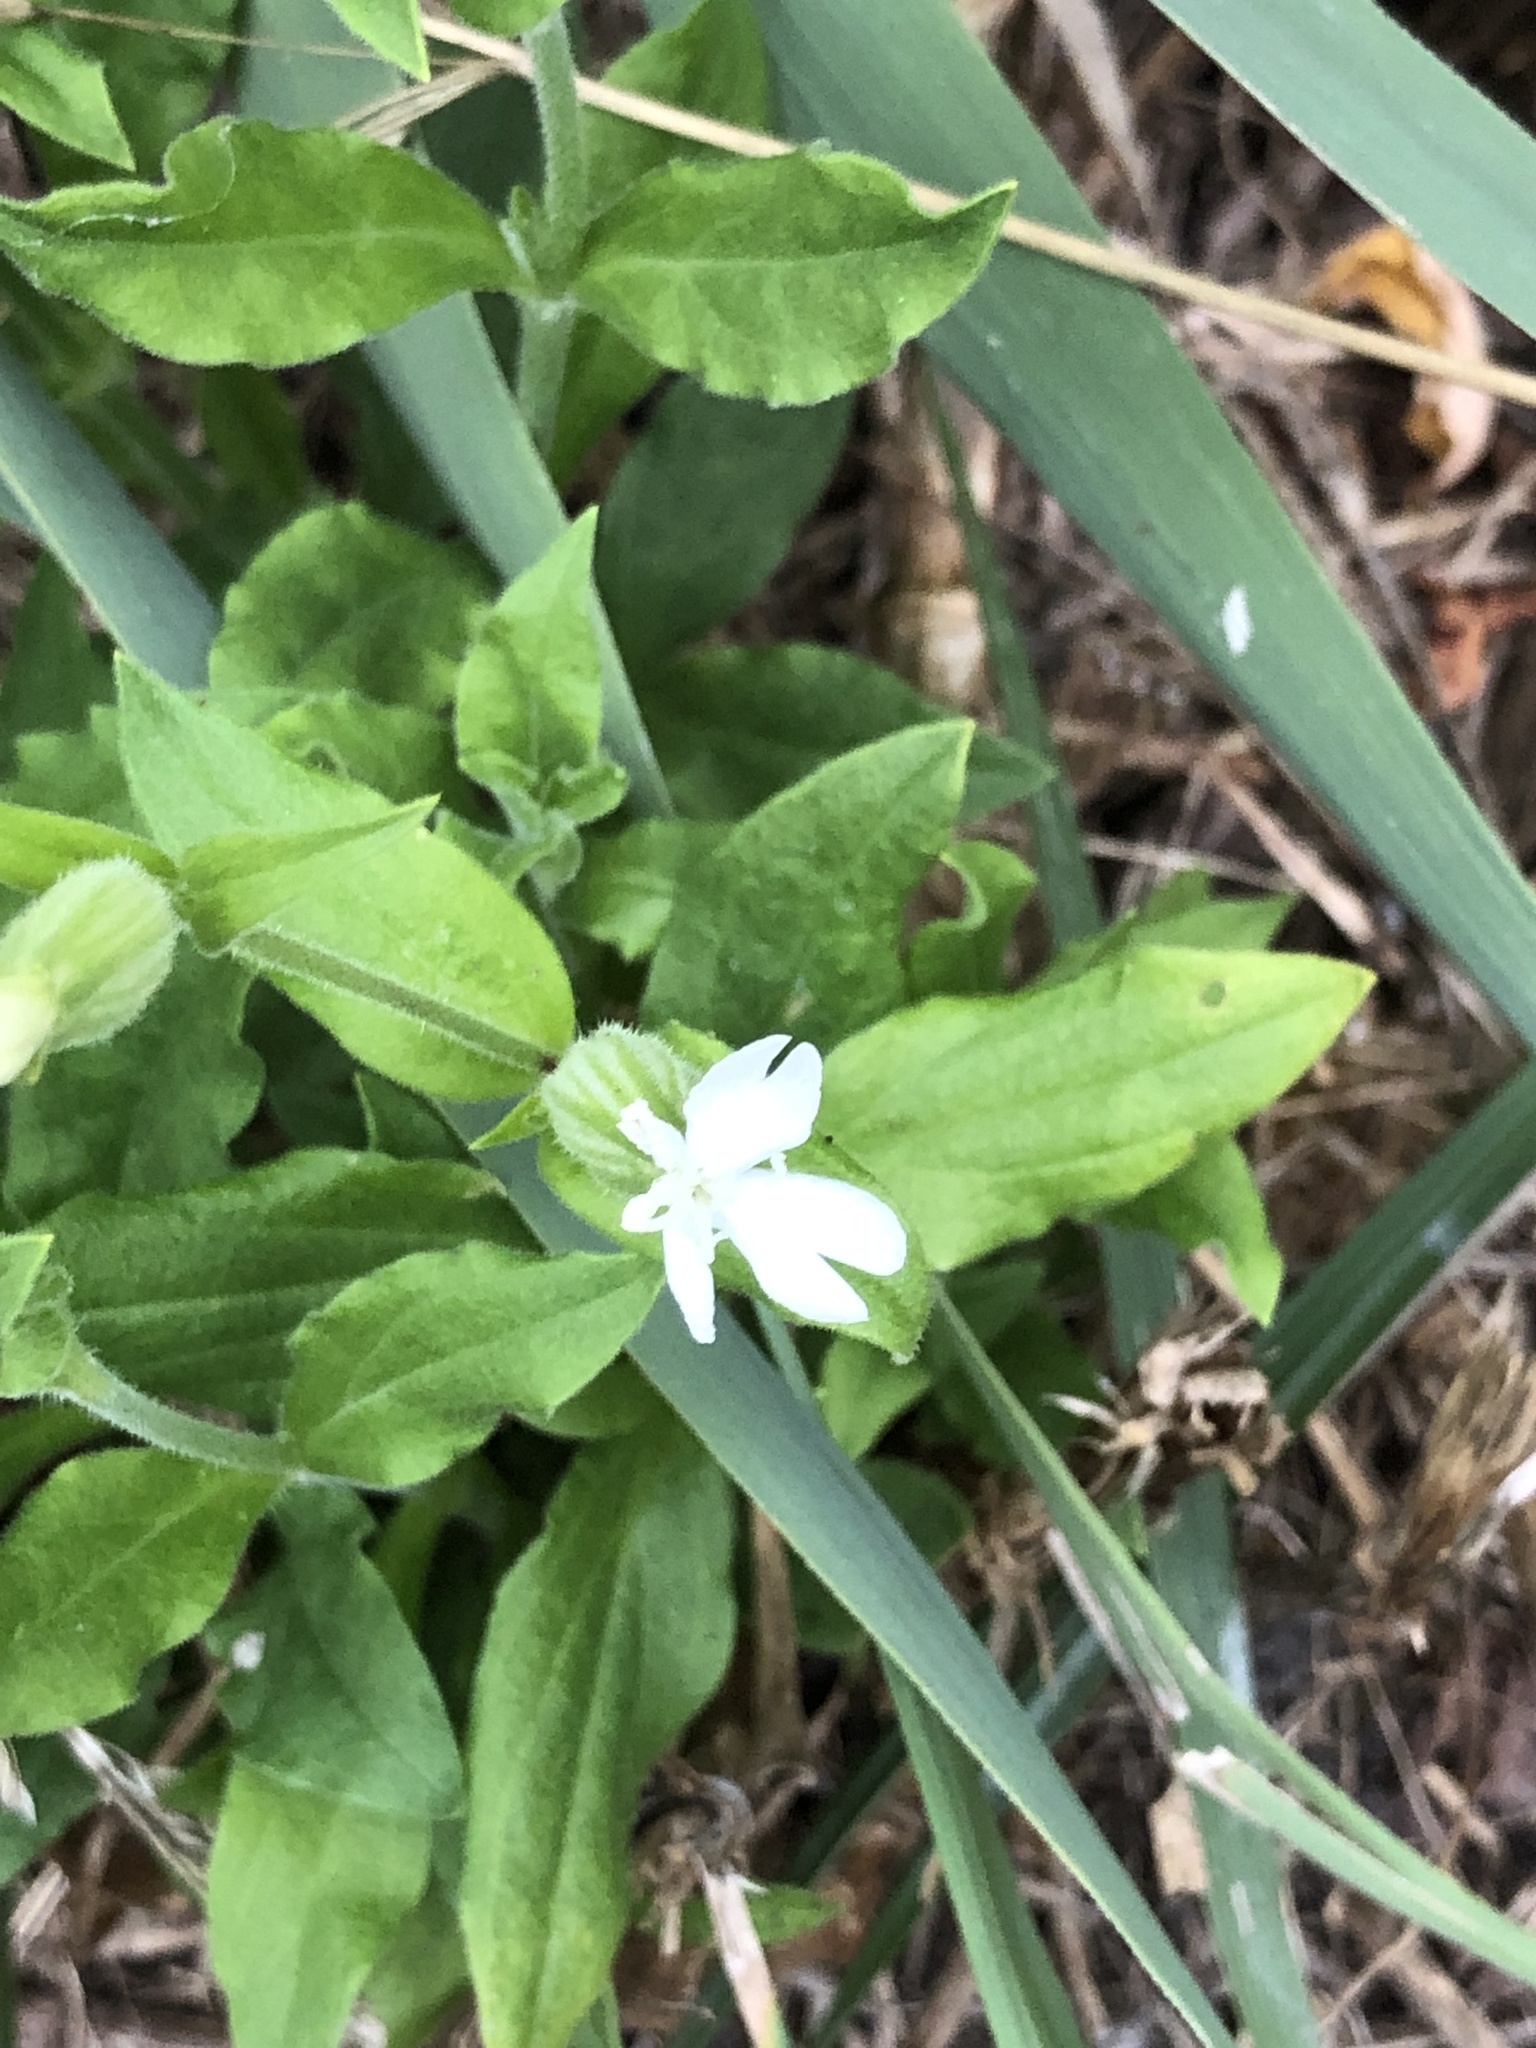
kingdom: Plantae
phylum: Tracheophyta
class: Magnoliopsida
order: Caryophyllales
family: Caryophyllaceae
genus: Silene
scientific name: Silene latifolia
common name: White campion
